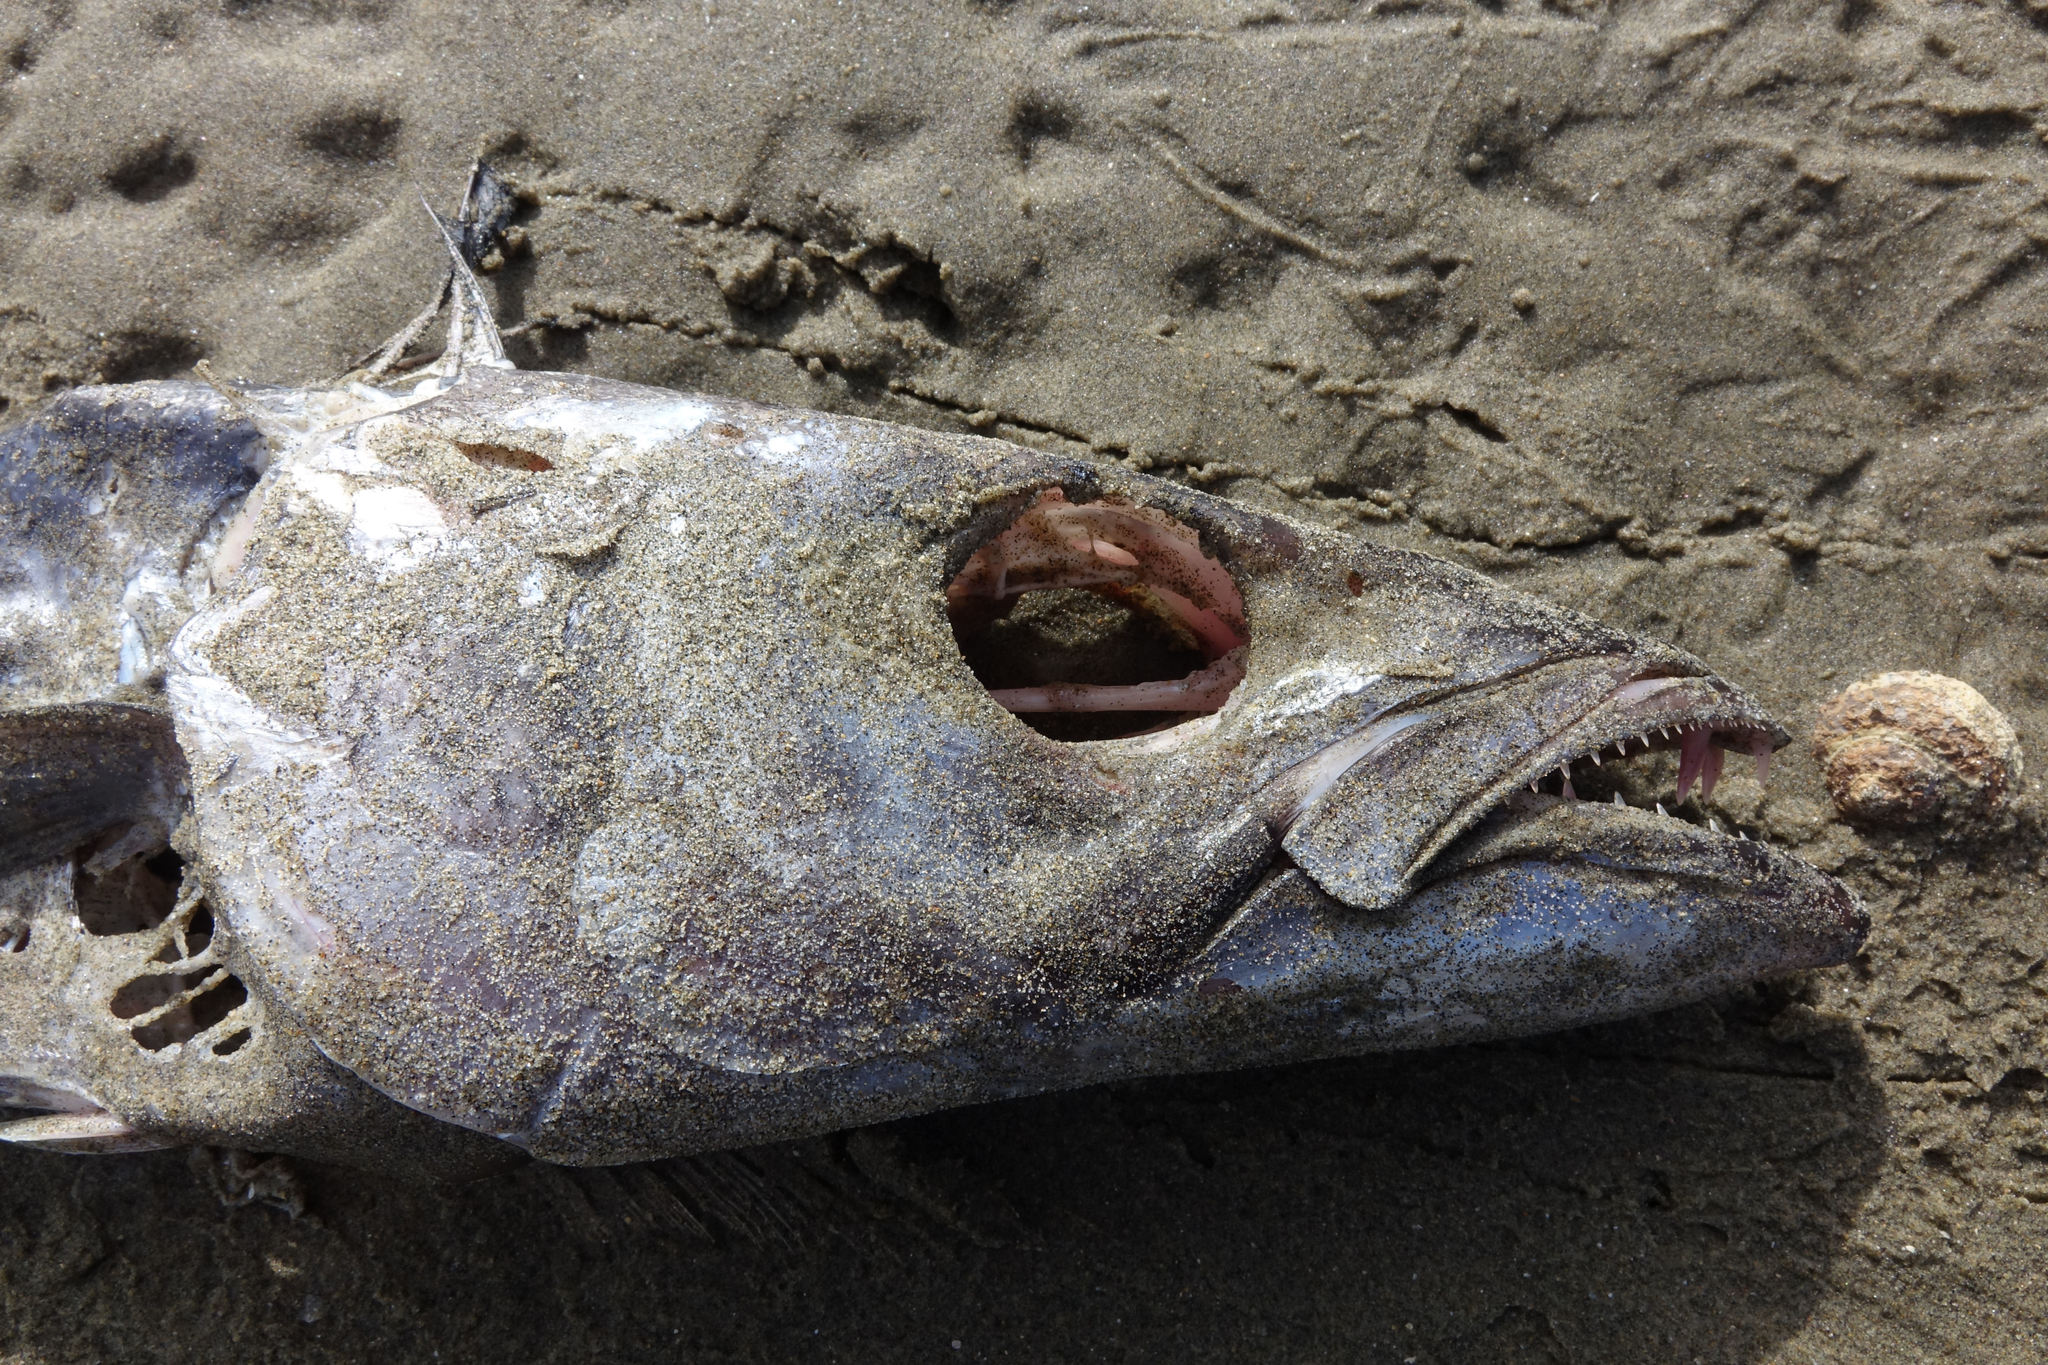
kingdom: Animalia
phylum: Chordata
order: Perciformes
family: Gempylidae
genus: Thyrsites
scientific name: Thyrsites atun
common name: Snoek
